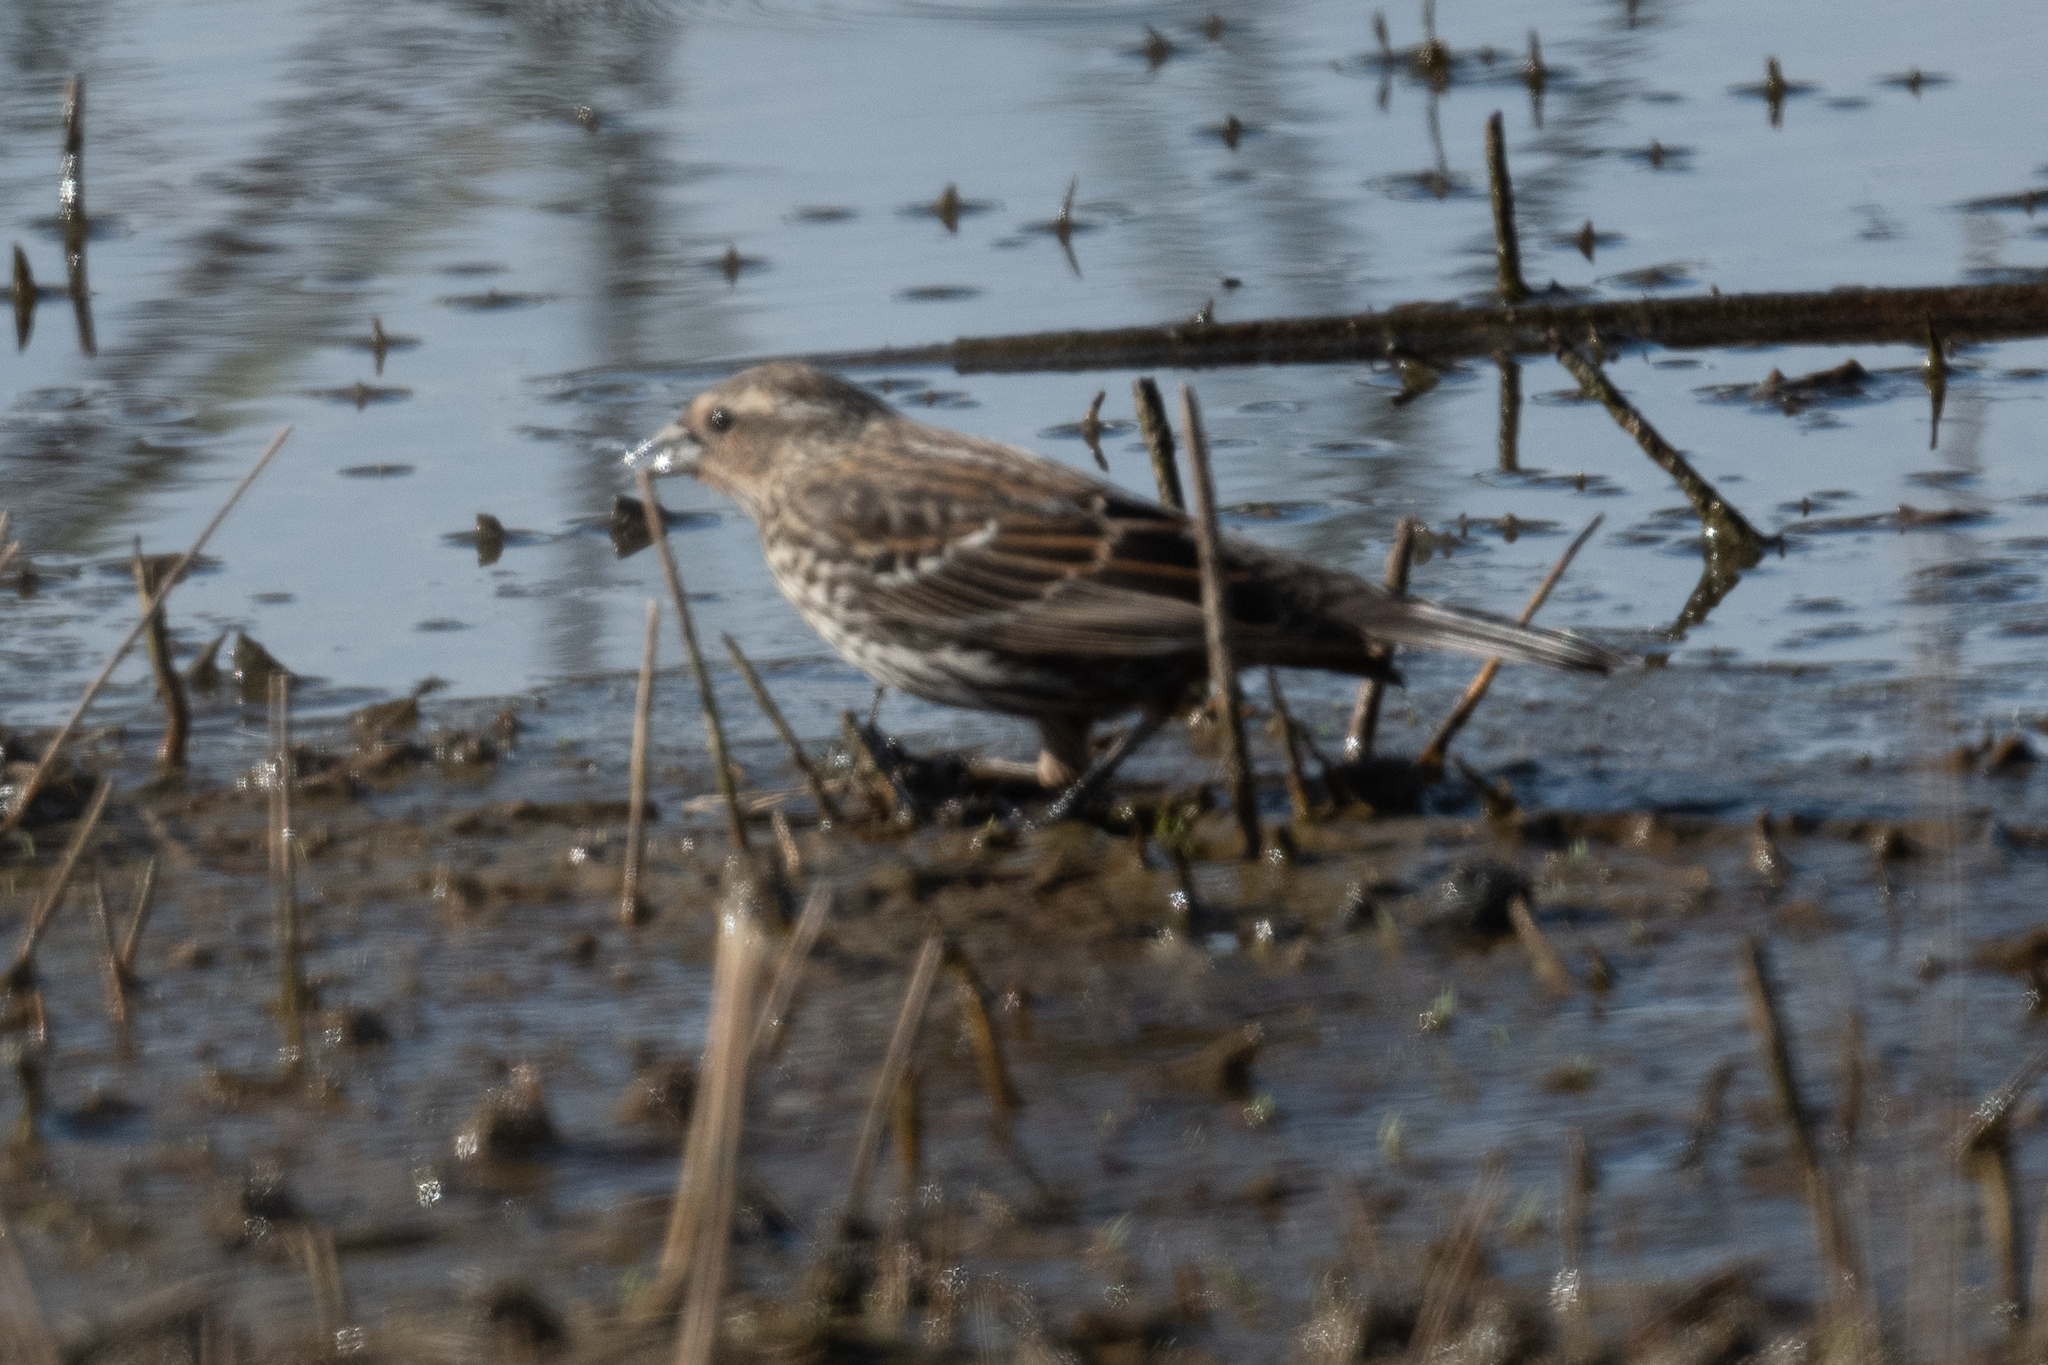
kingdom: Animalia
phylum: Chordata
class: Aves
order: Passeriformes
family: Icteridae
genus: Agelaius
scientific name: Agelaius phoeniceus
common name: Red-winged blackbird
